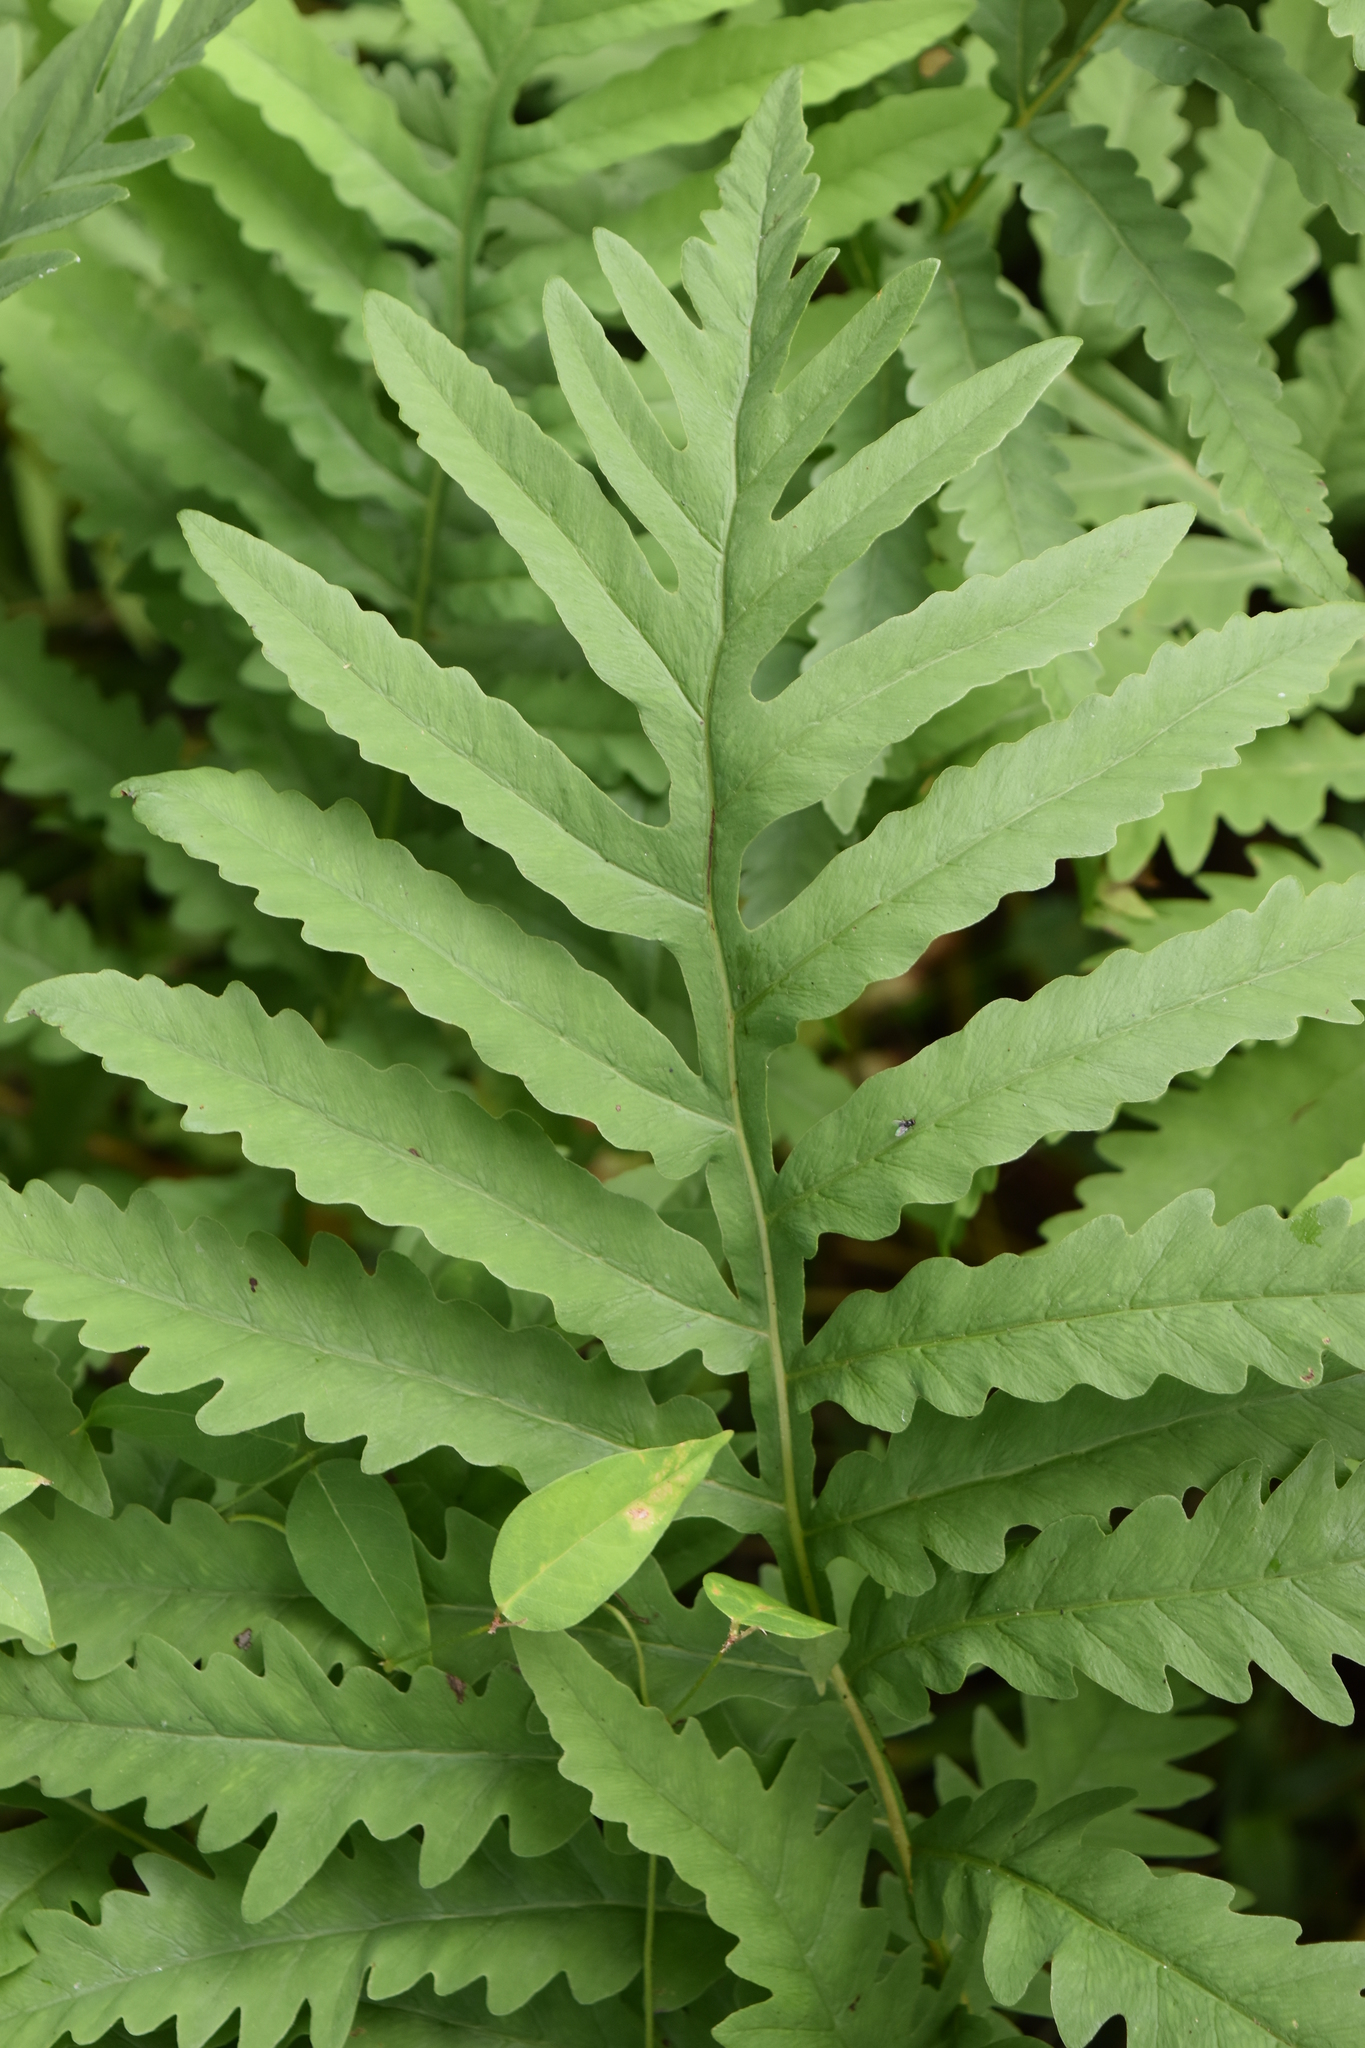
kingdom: Plantae
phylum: Tracheophyta
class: Polypodiopsida
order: Polypodiales
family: Onocleaceae
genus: Onoclea
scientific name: Onoclea sensibilis
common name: Sensitive fern
